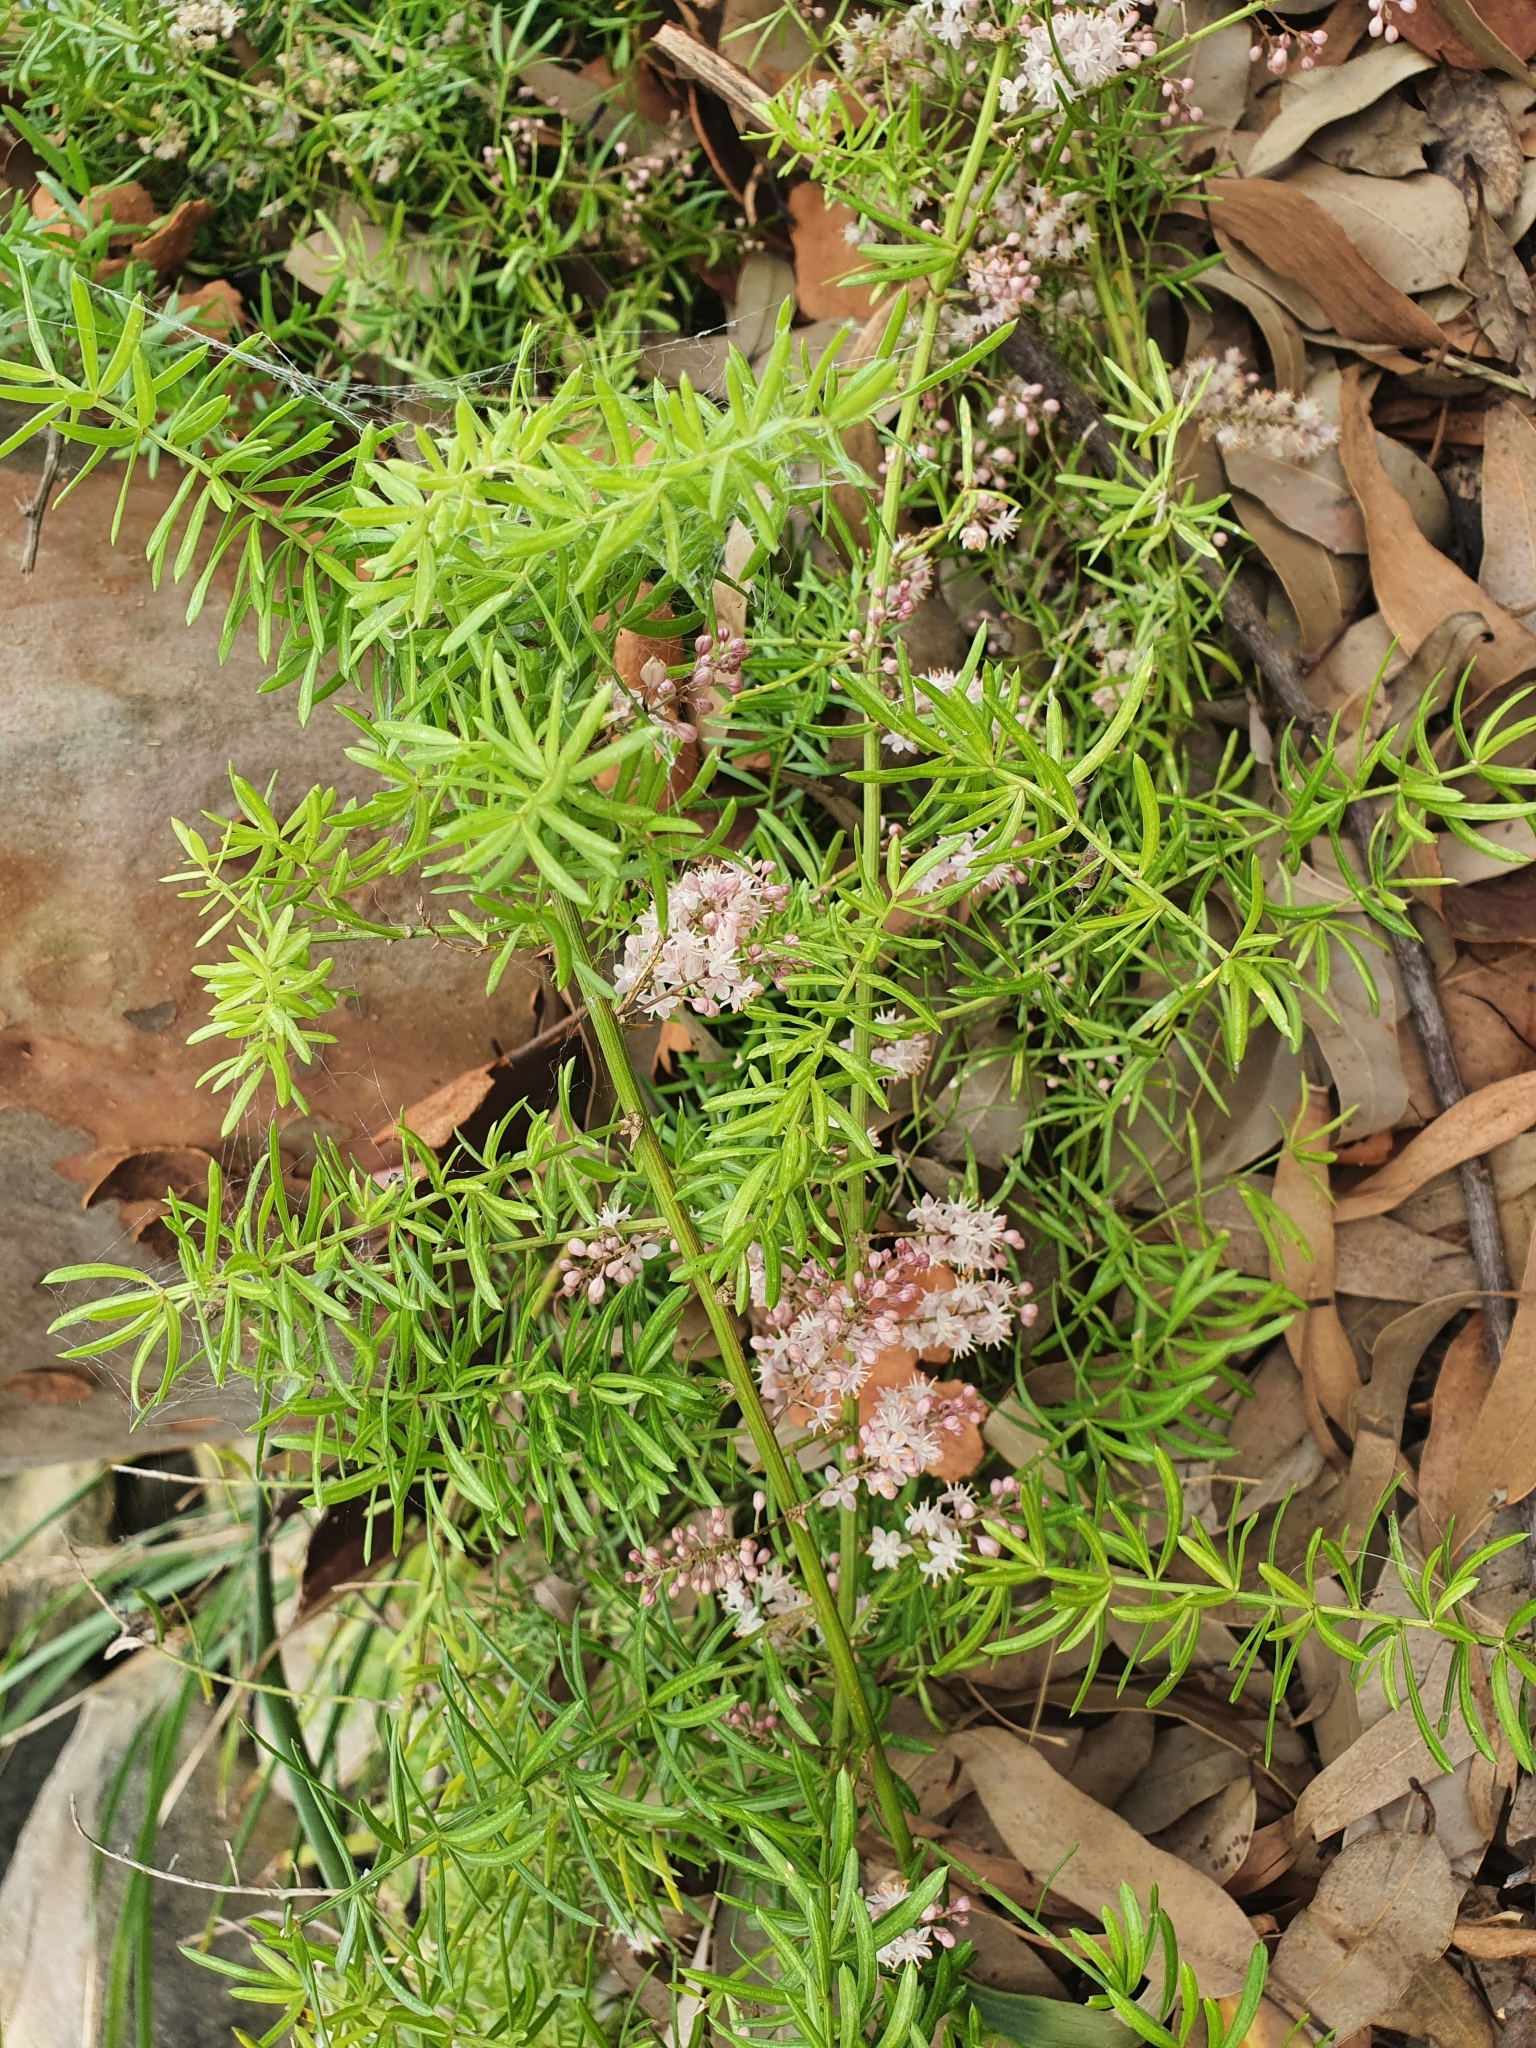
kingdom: Plantae
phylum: Tracheophyta
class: Liliopsida
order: Asparagales
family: Asparagaceae
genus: Asparagus
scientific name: Asparagus aethiopicus
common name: Sprenger's asparagus fern
